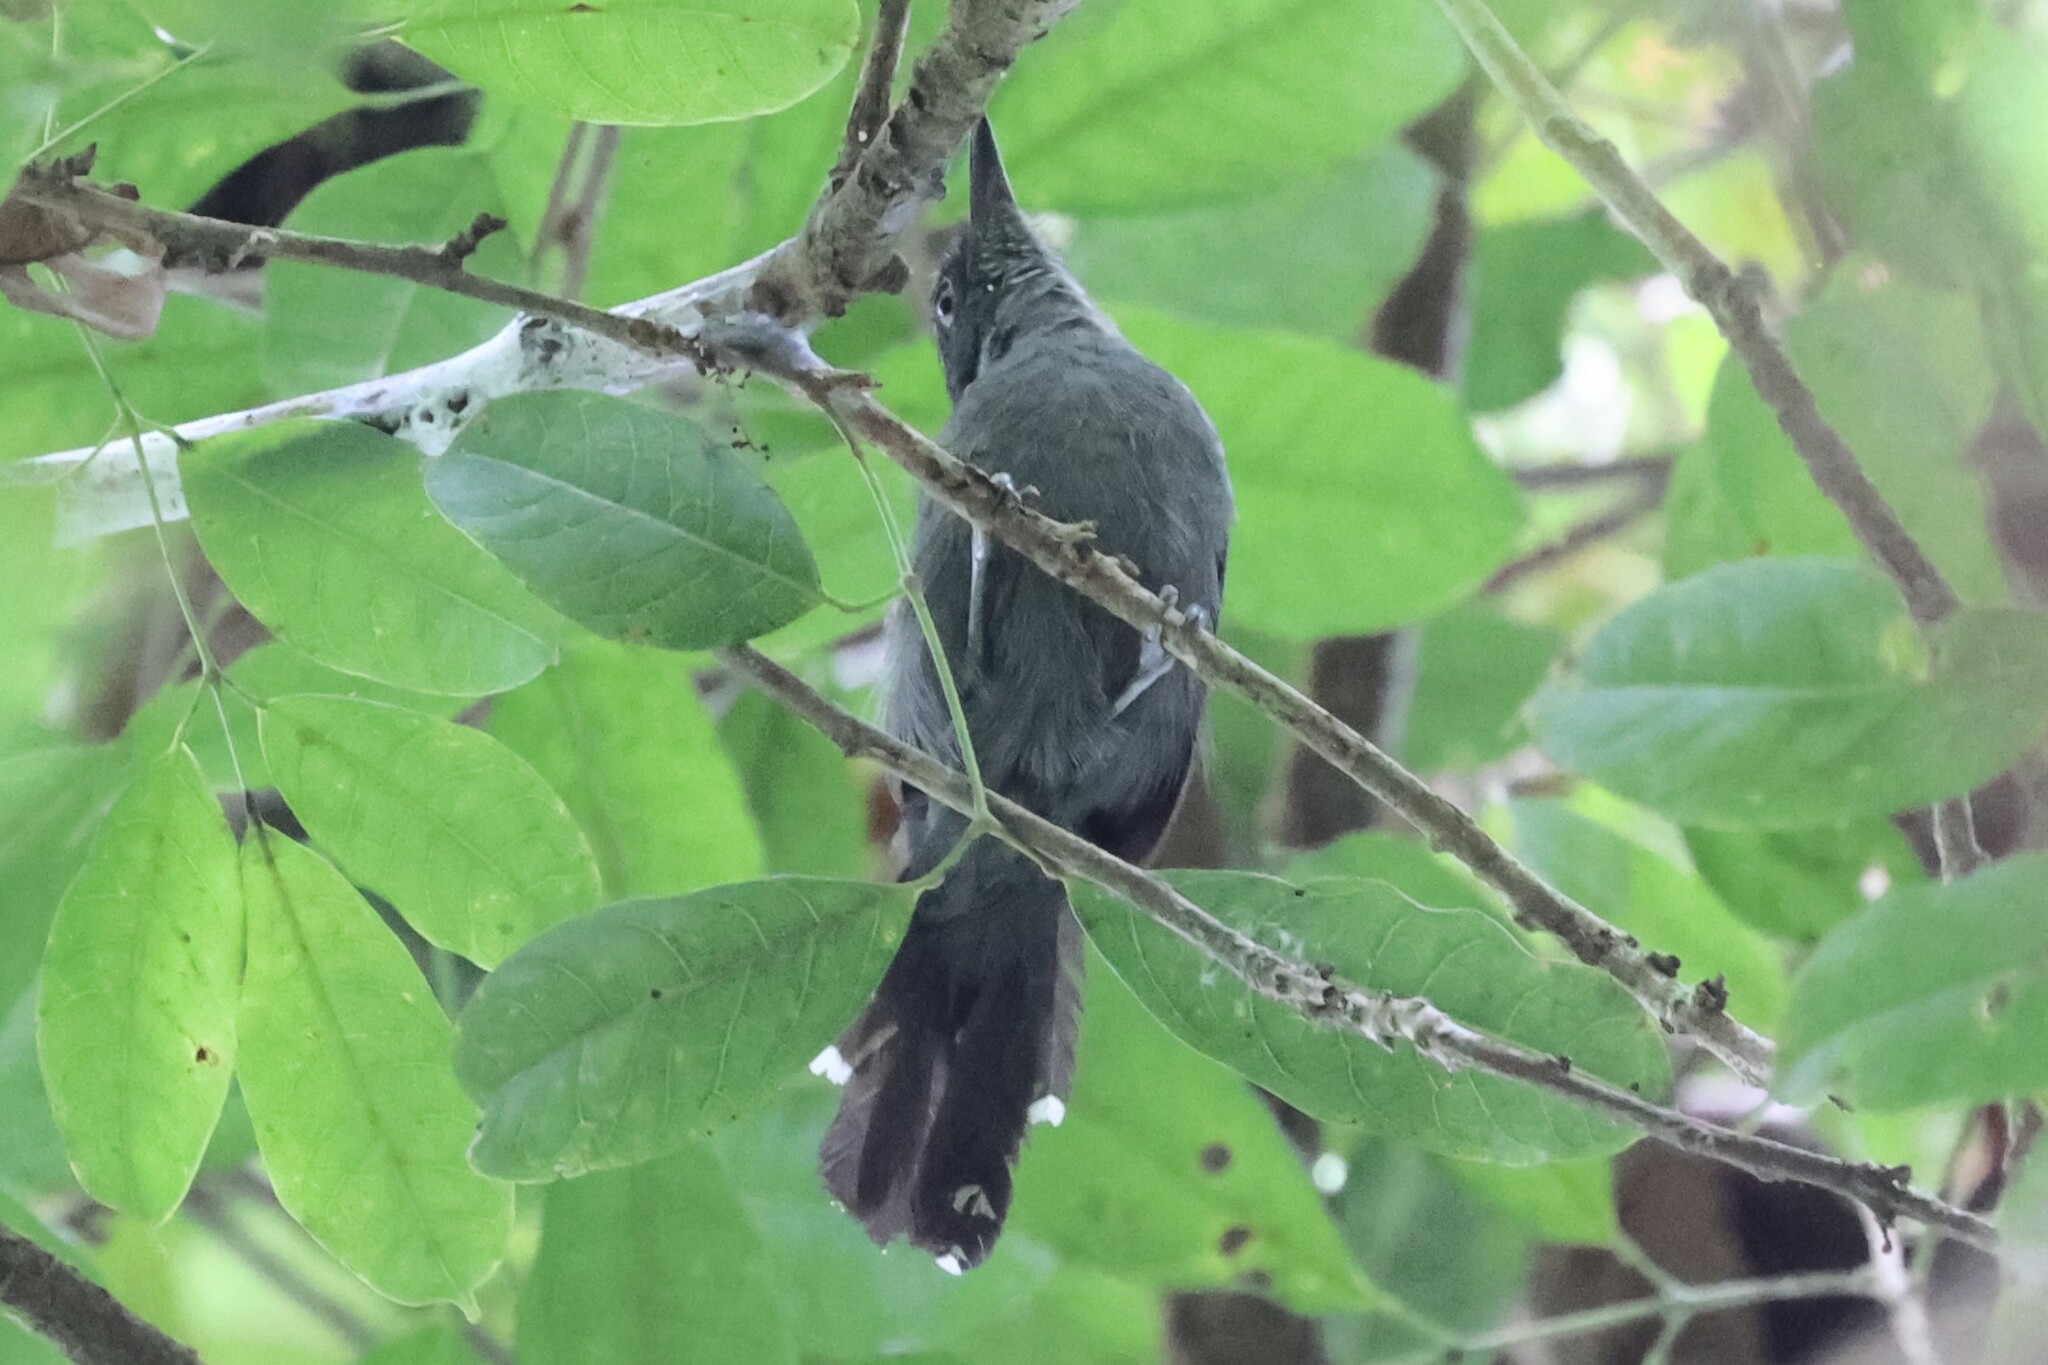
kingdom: Animalia
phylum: Chordata
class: Aves
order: Passeriformes
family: Thamnophilidae
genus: Cercomacra
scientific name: Cercomacra cinerascens
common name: Grey antbird
